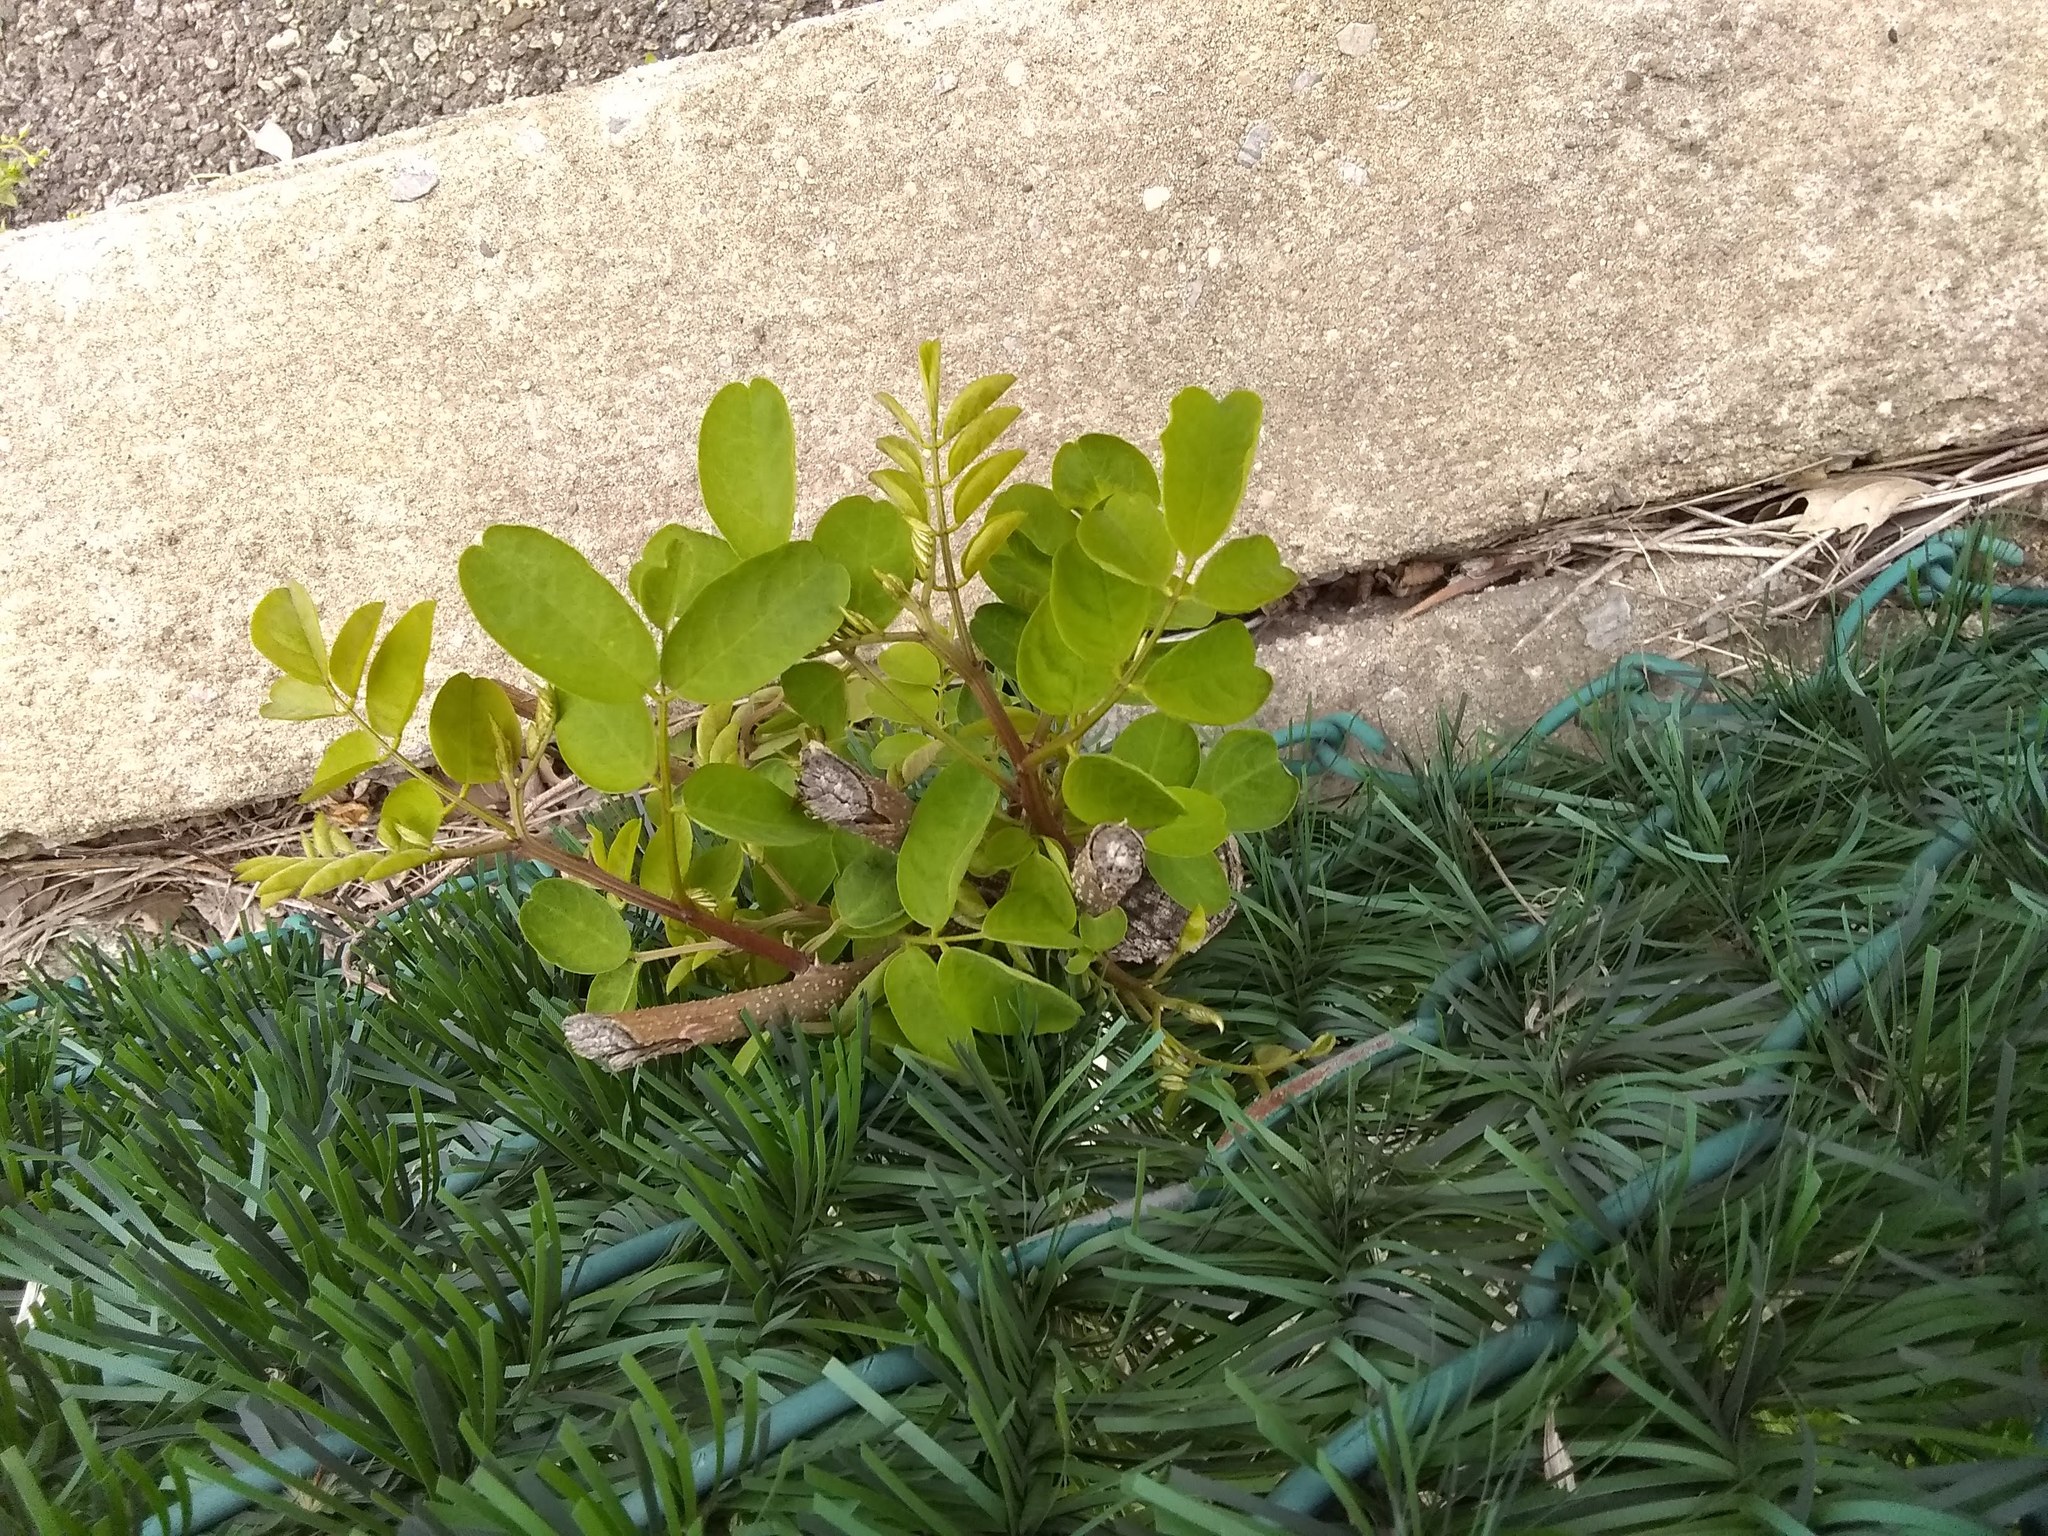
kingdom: Plantae
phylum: Tracheophyta
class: Magnoliopsida
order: Fabales
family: Fabaceae
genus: Robinia
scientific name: Robinia pseudoacacia
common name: Black locust
